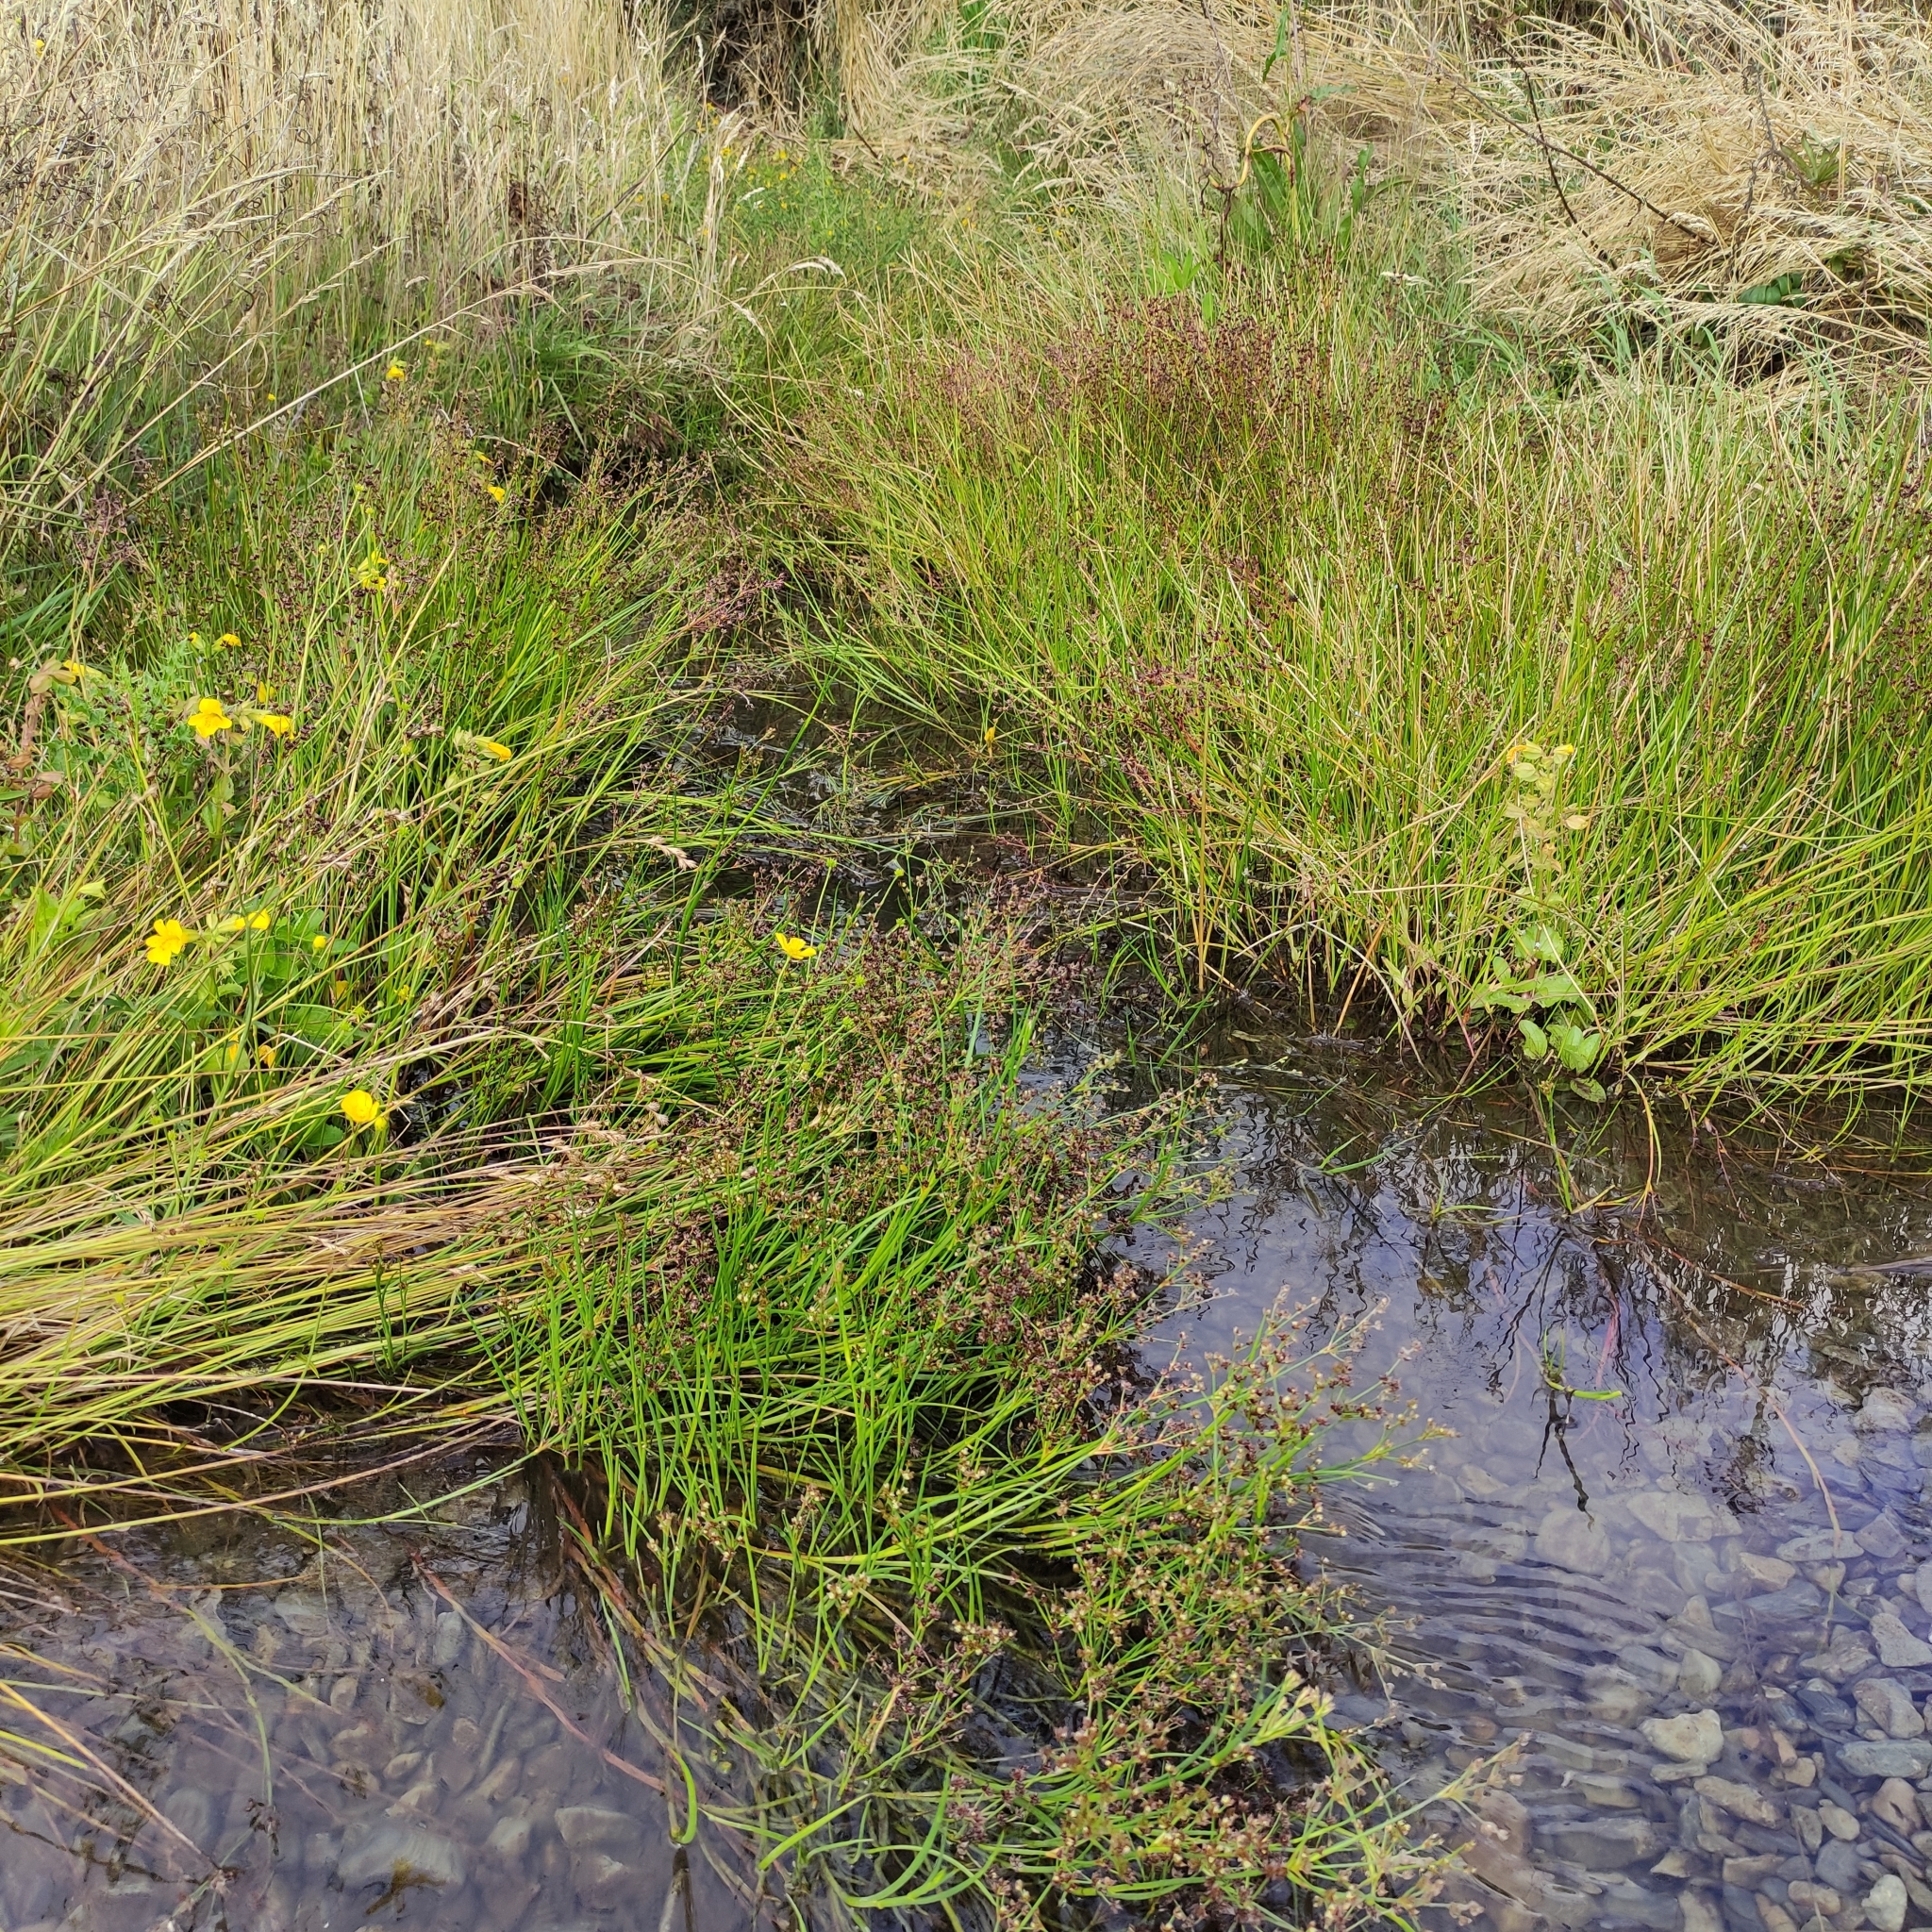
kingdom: Plantae
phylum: Tracheophyta
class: Liliopsida
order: Poales
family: Juncaceae
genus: Juncus
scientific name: Juncus articulatus
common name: Jointed rush
